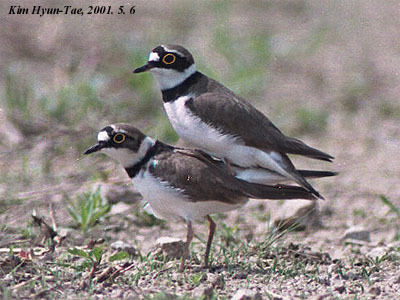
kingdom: Animalia
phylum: Chordata
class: Aves
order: Charadriiformes
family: Charadriidae
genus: Charadrius
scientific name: Charadrius dubius
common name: Little ringed plover
